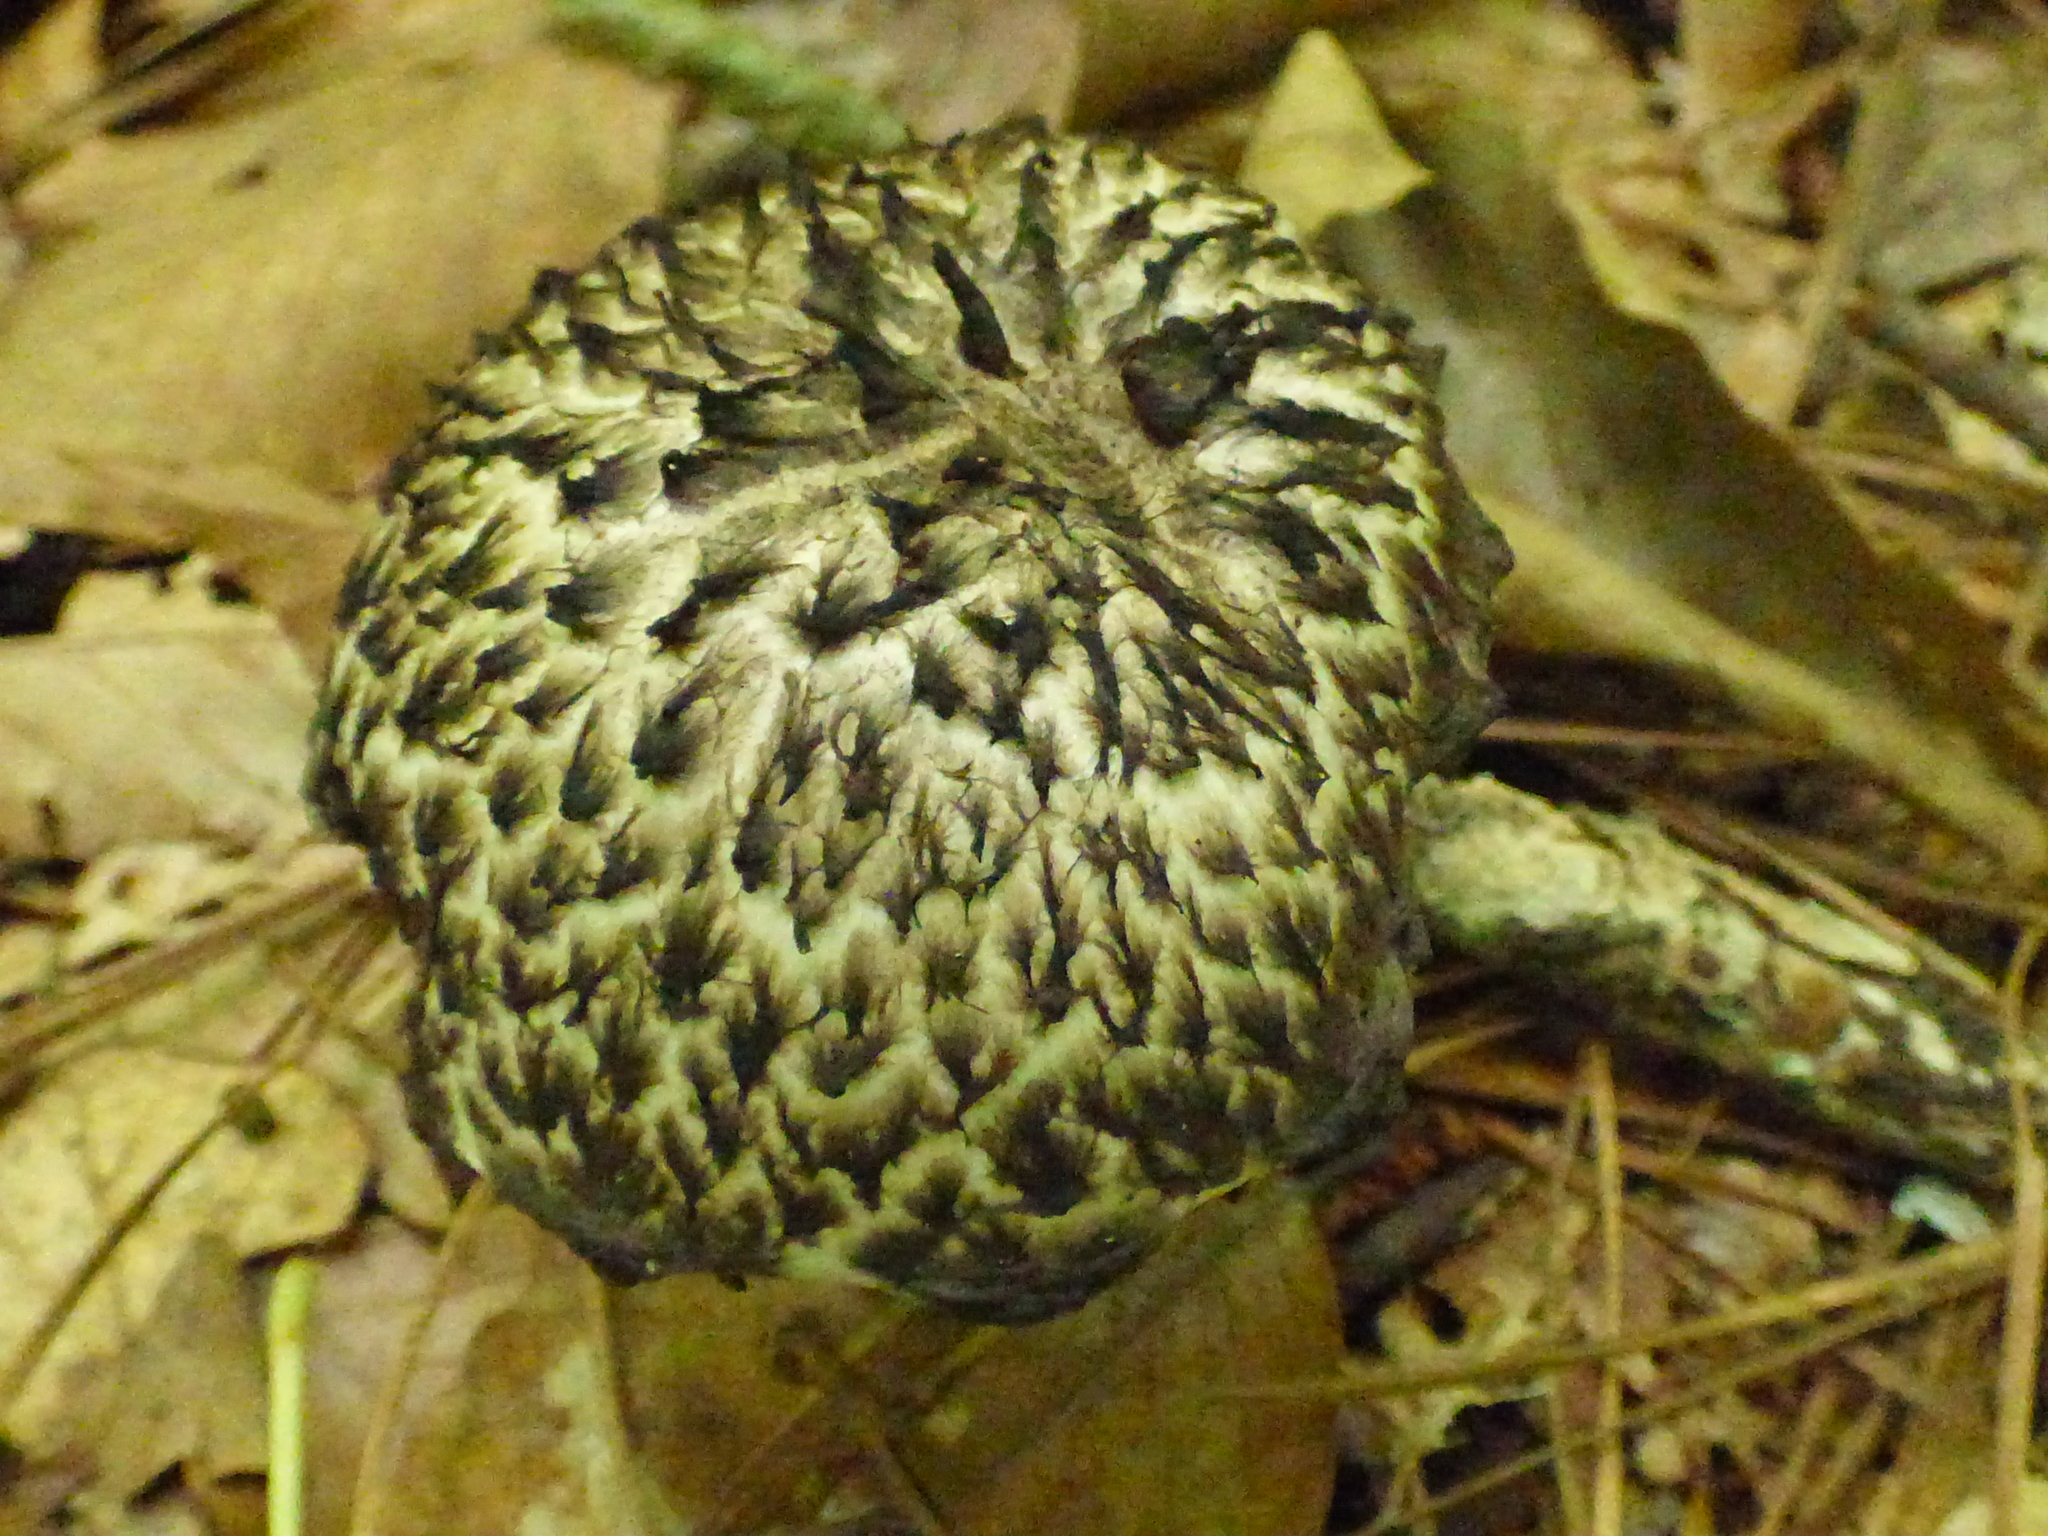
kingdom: Fungi
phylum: Basidiomycota
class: Agaricomycetes
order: Boletales
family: Boletaceae
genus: Strobilomyces
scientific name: Strobilomyces strobilaceus
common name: Old man of the woods
